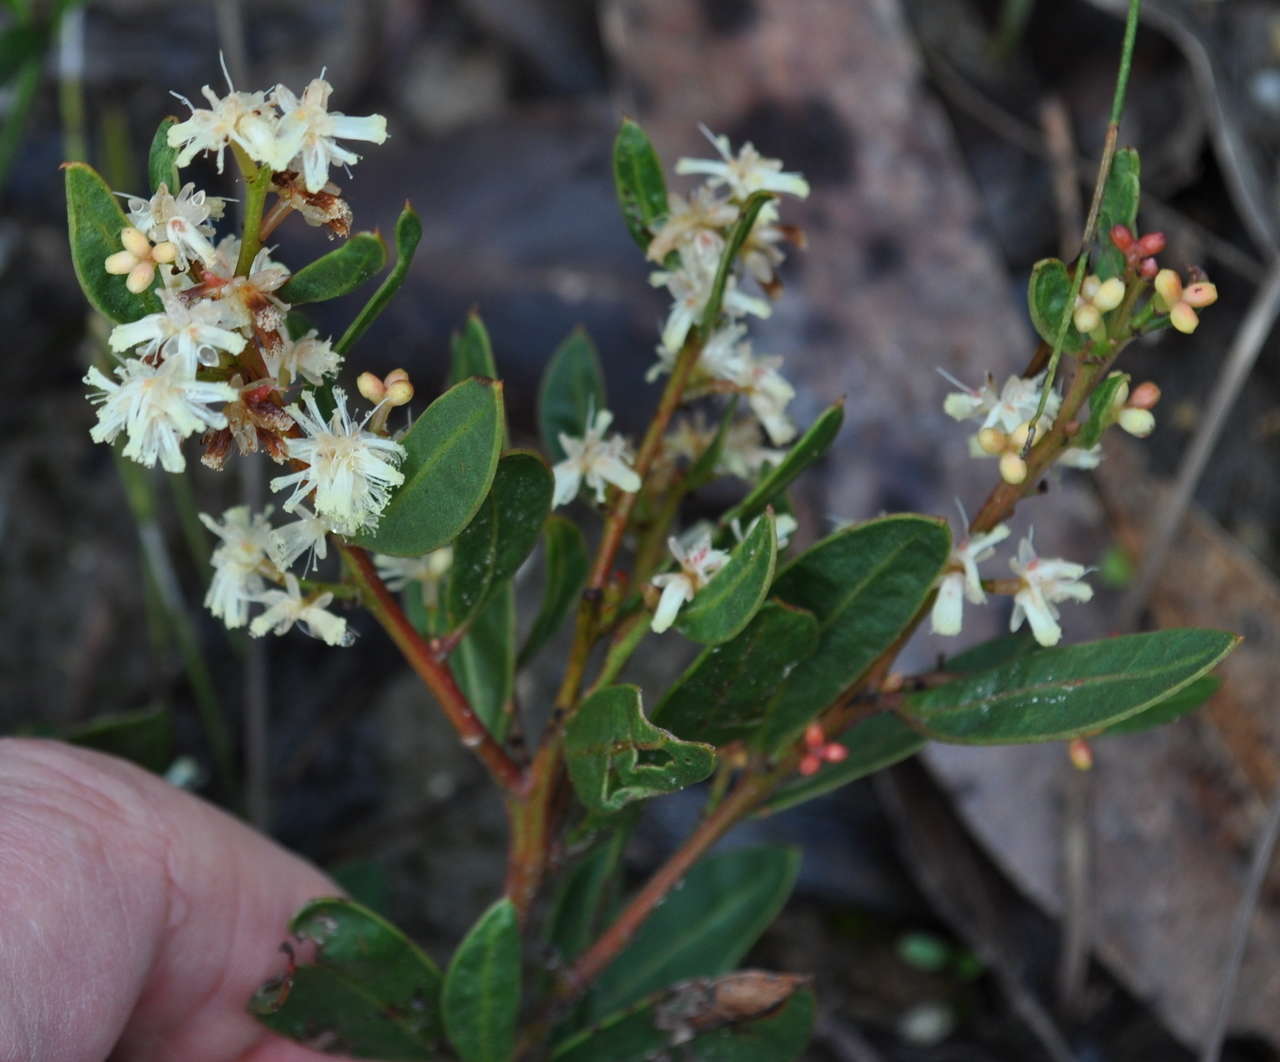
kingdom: Plantae
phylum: Tracheophyta
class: Magnoliopsida
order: Fabales
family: Fabaceae
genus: Acacia
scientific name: Acacia myrtifolia
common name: Myrtle wattle
